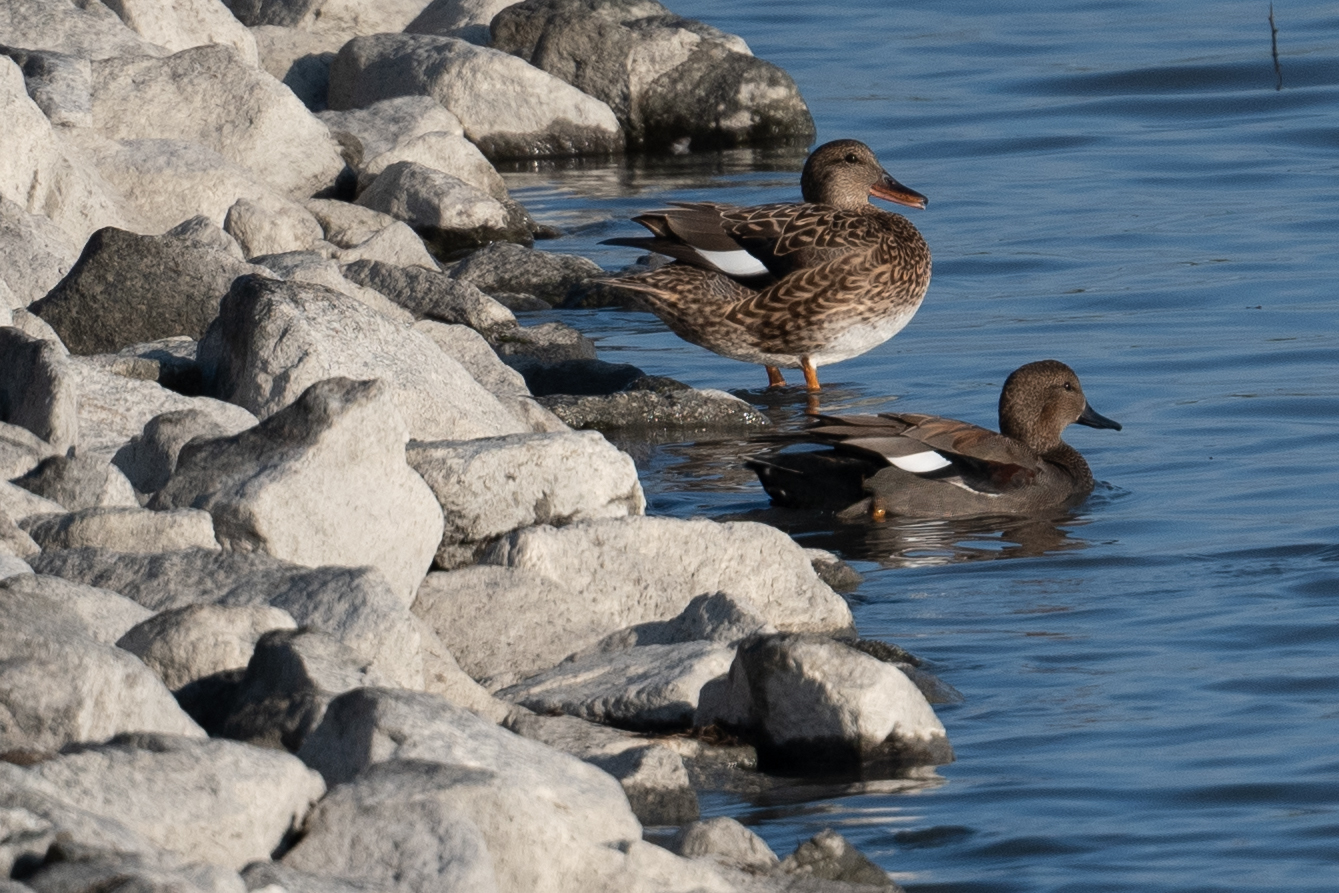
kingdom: Animalia
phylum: Chordata
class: Aves
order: Anseriformes
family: Anatidae
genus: Mareca
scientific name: Mareca strepera
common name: Gadwall
